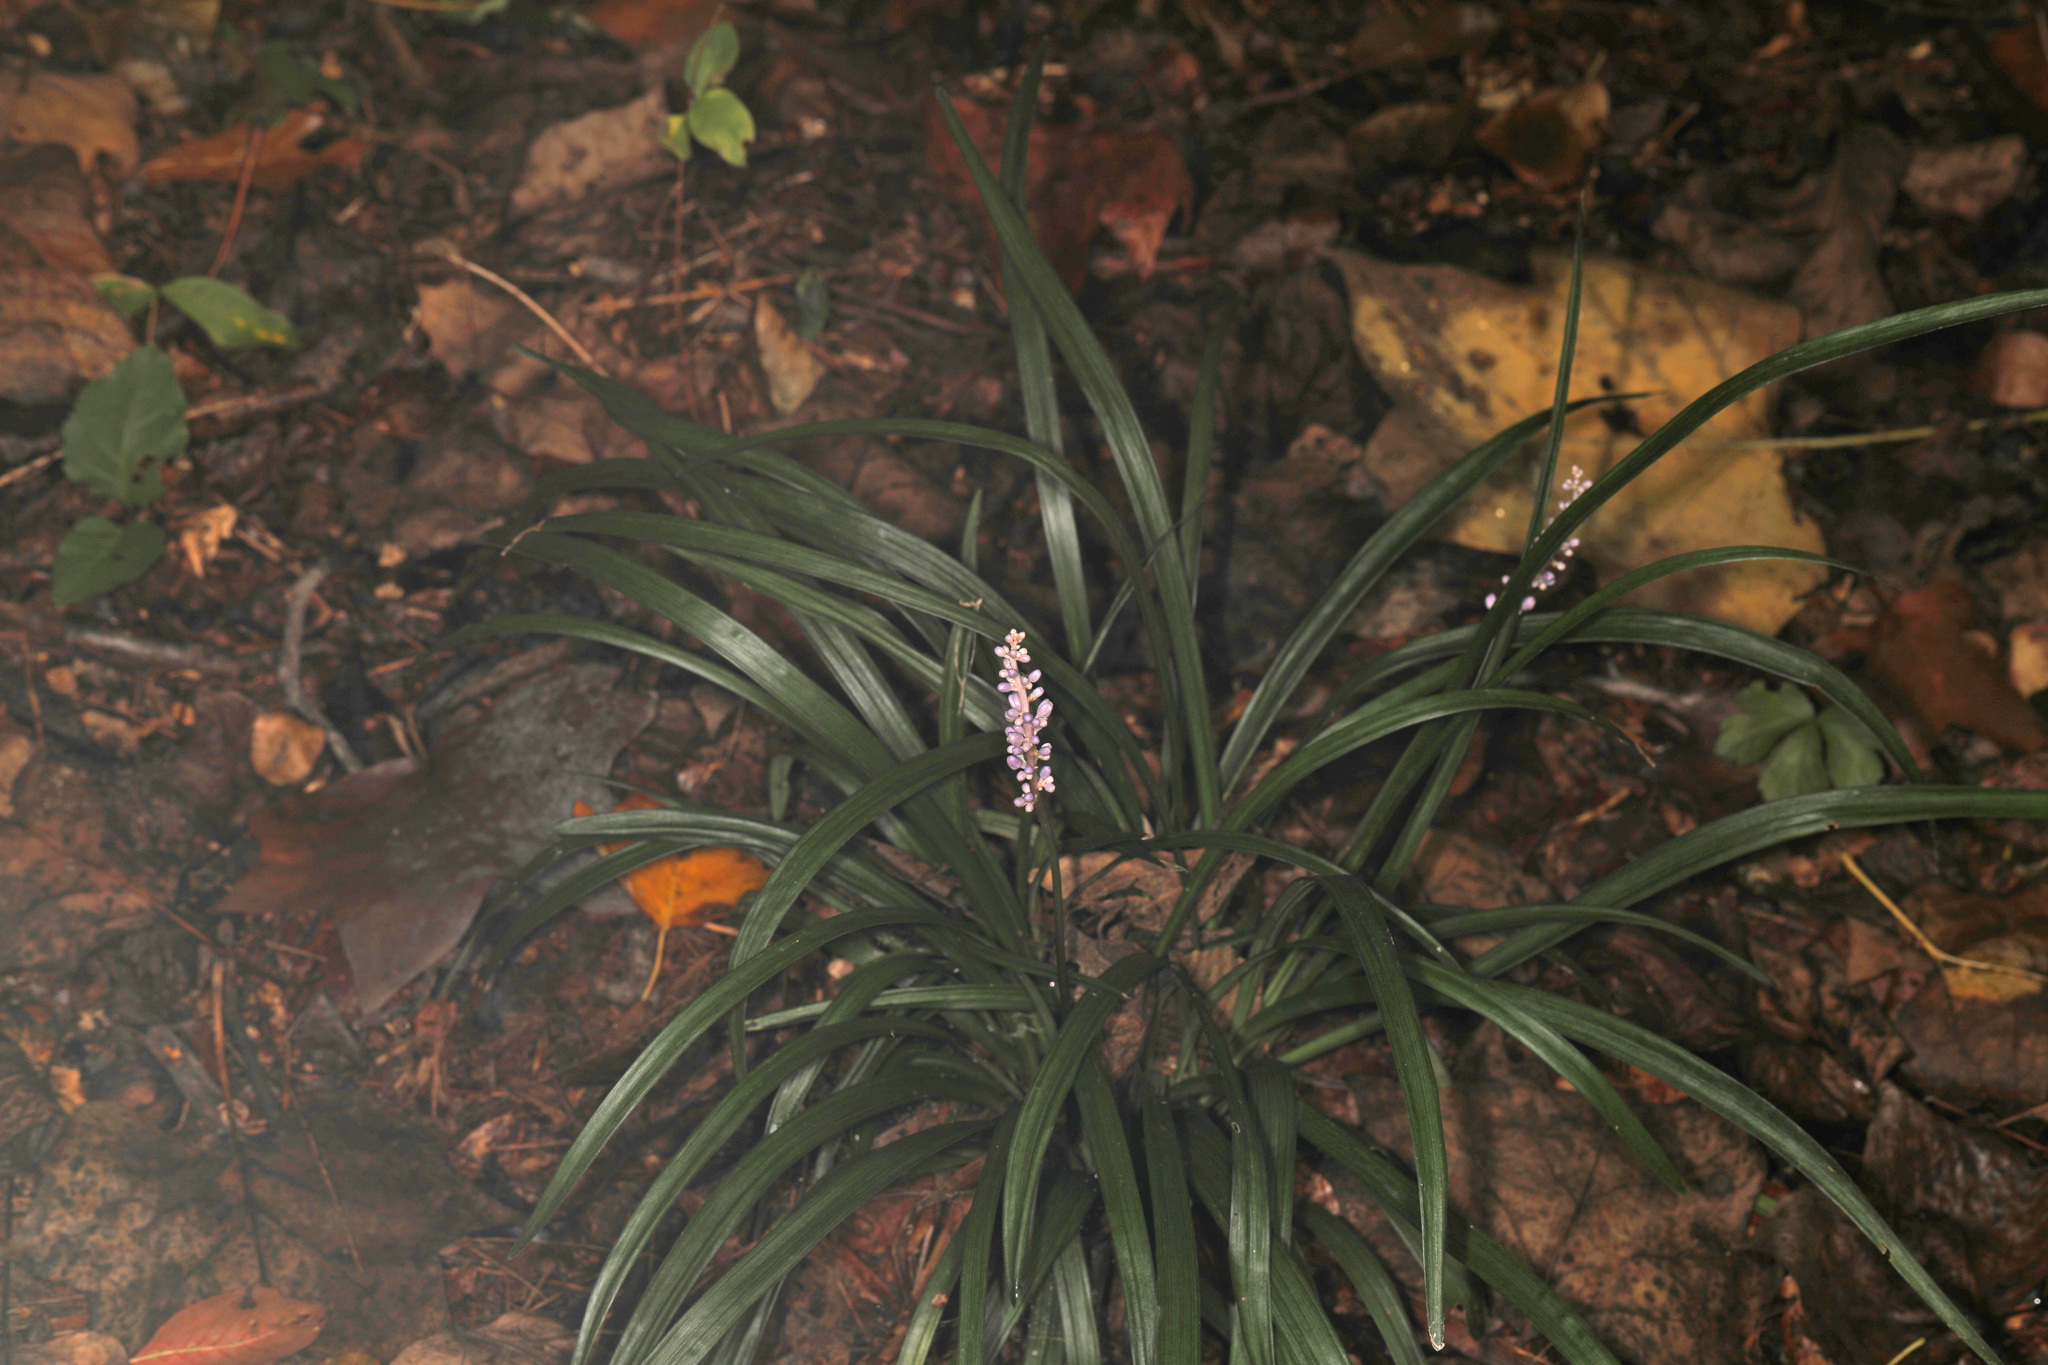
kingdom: Plantae
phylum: Tracheophyta
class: Liliopsida
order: Asparagales
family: Asparagaceae
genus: Liriope
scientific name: Liriope muscari
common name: Big blue lilyturf
